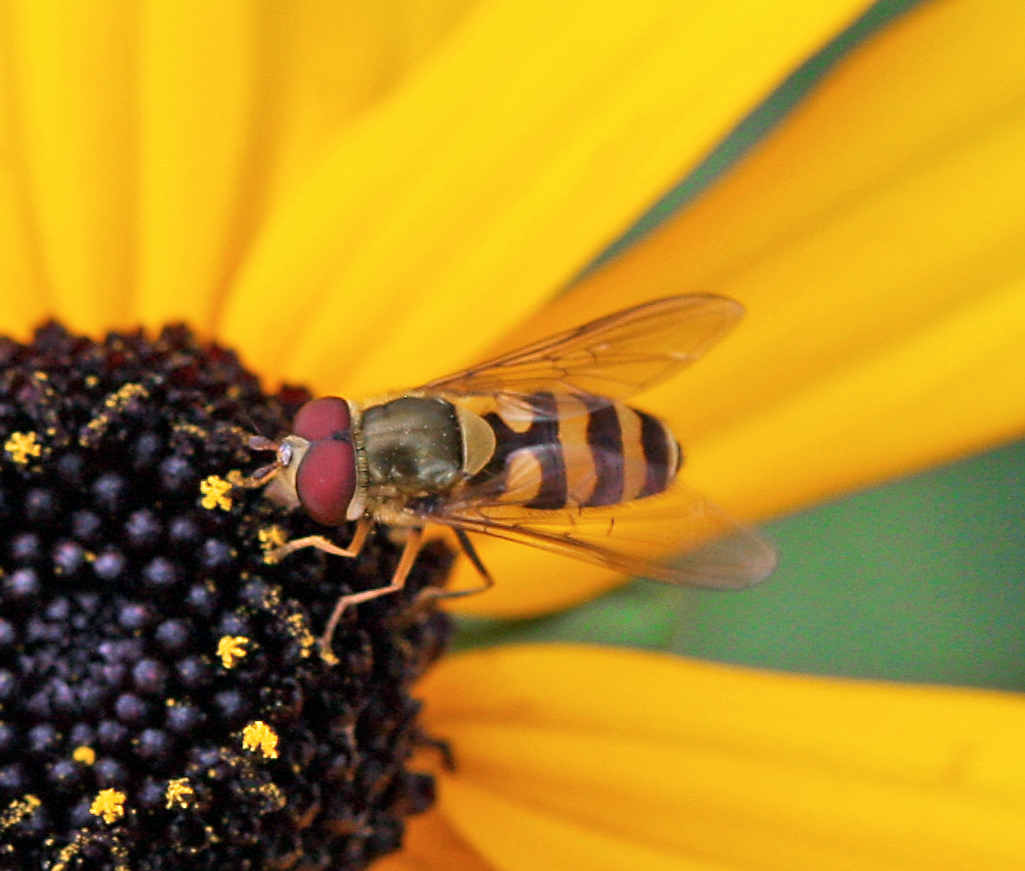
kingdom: Animalia
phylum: Arthropoda
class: Insecta
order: Diptera
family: Syrphidae
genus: Syrphus
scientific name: Syrphus
